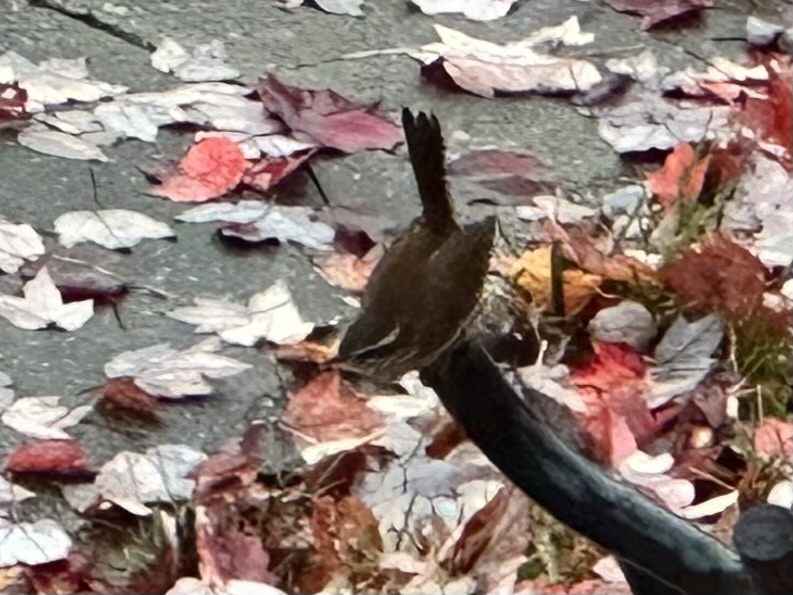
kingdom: Animalia
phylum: Chordata
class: Aves
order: Passeriformes
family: Troglodytidae
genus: Thryothorus
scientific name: Thryothorus ludovicianus
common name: Carolina wren
